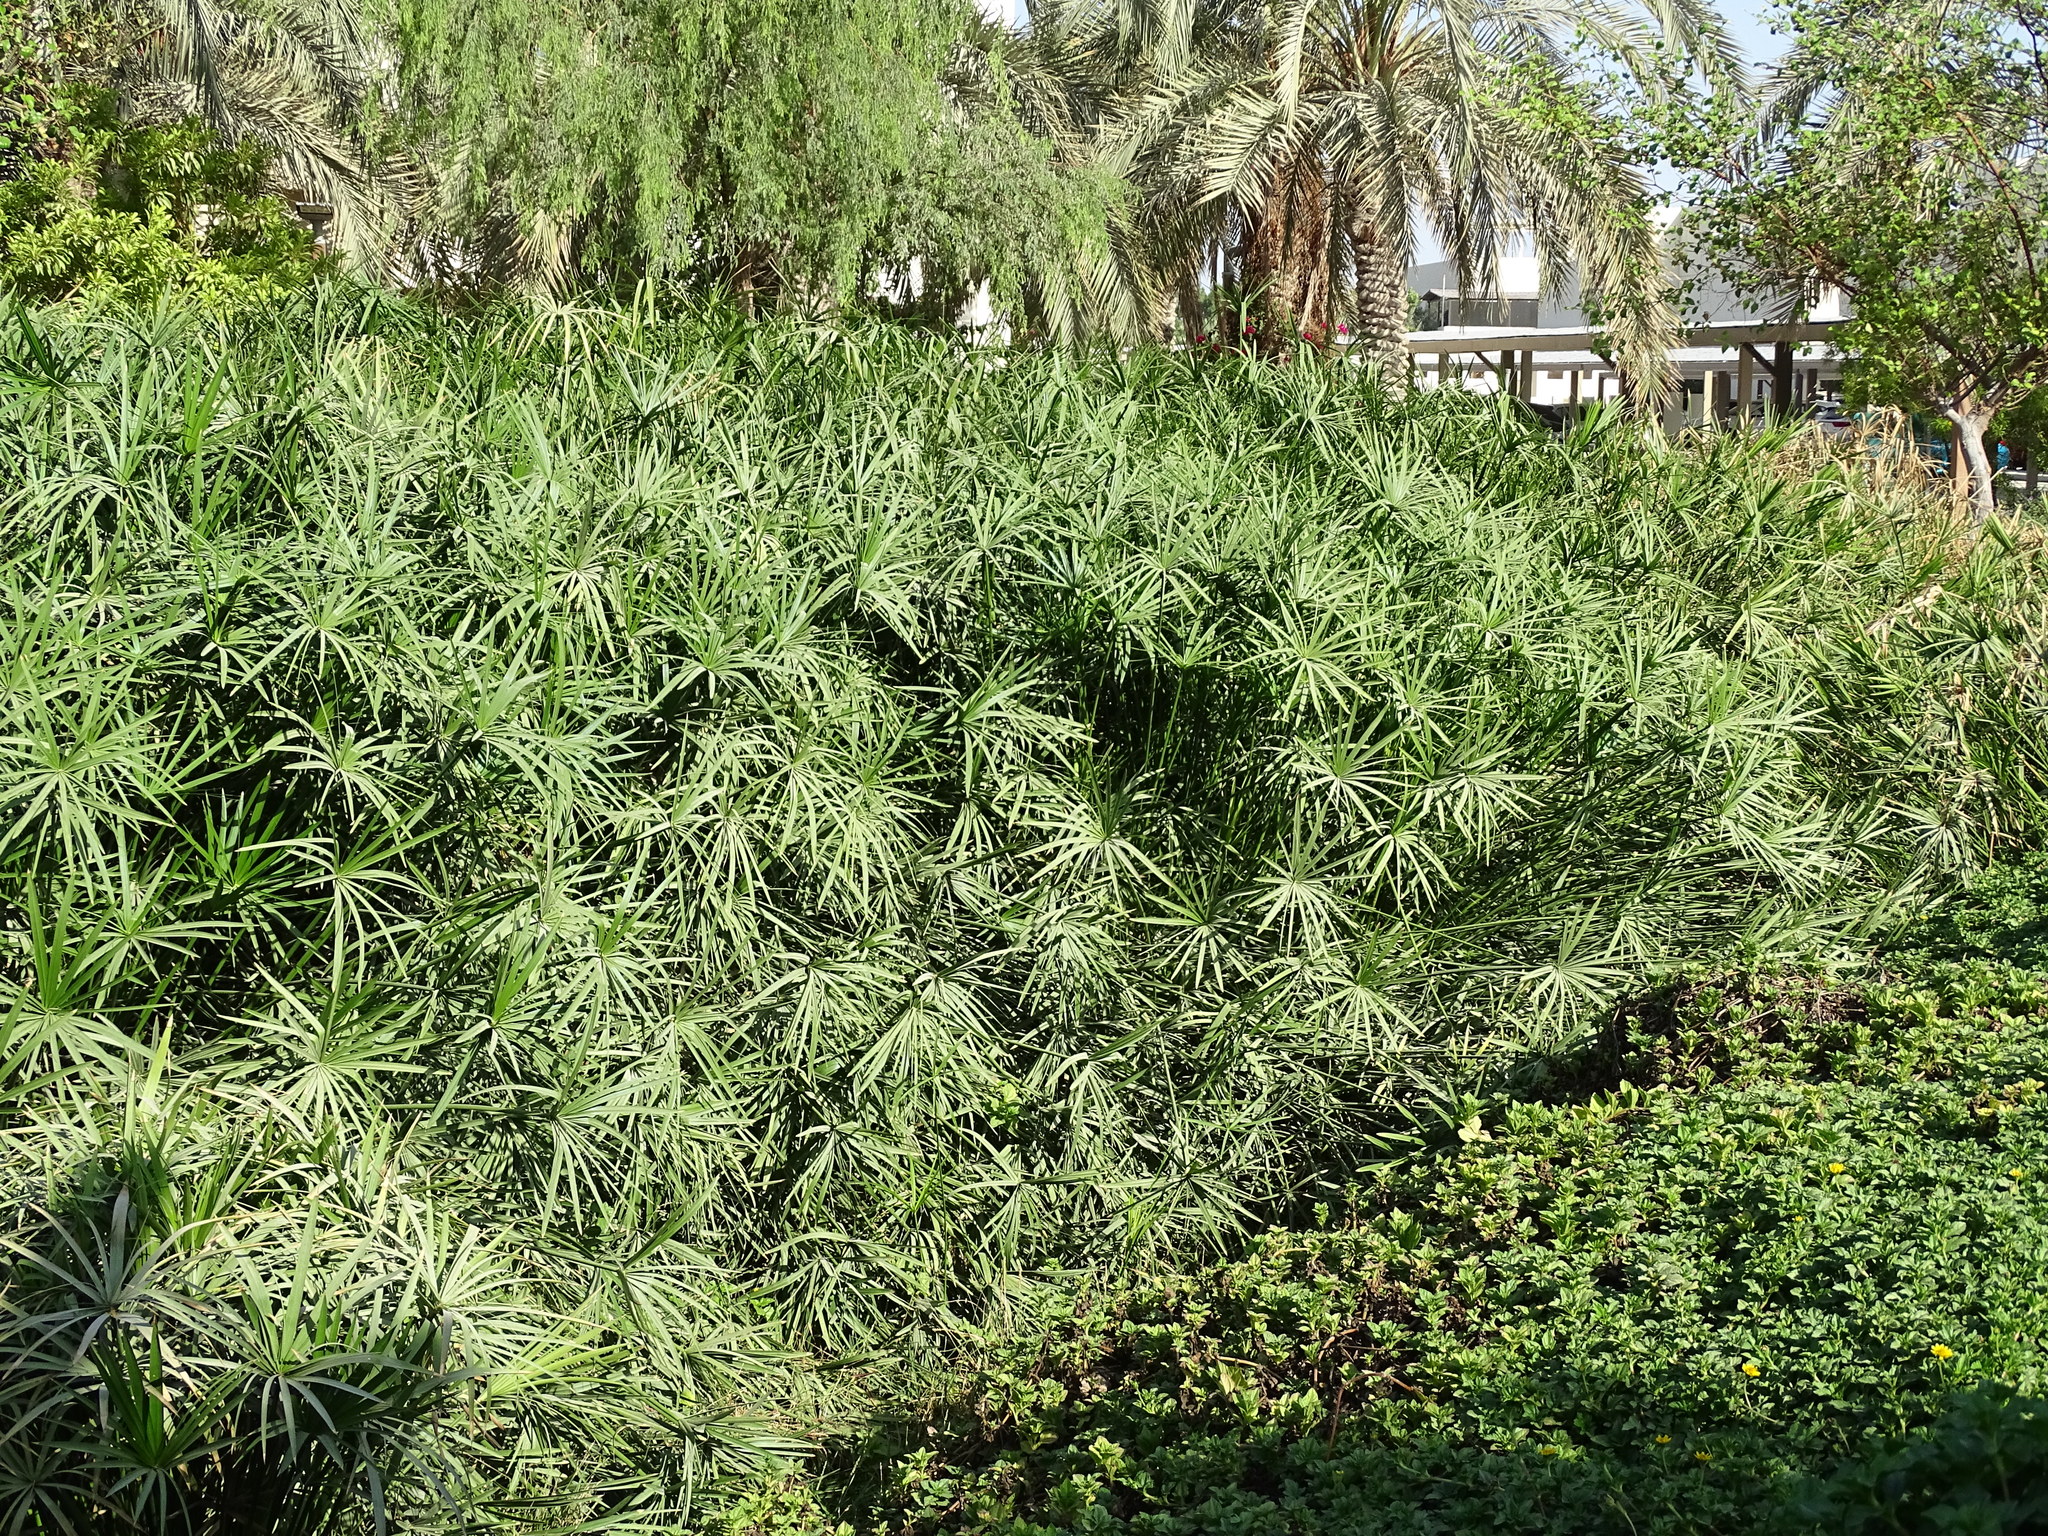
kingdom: Plantae
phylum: Tracheophyta
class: Liliopsida
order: Poales
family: Cyperaceae
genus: Cyperus
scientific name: Cyperus alternifolius
